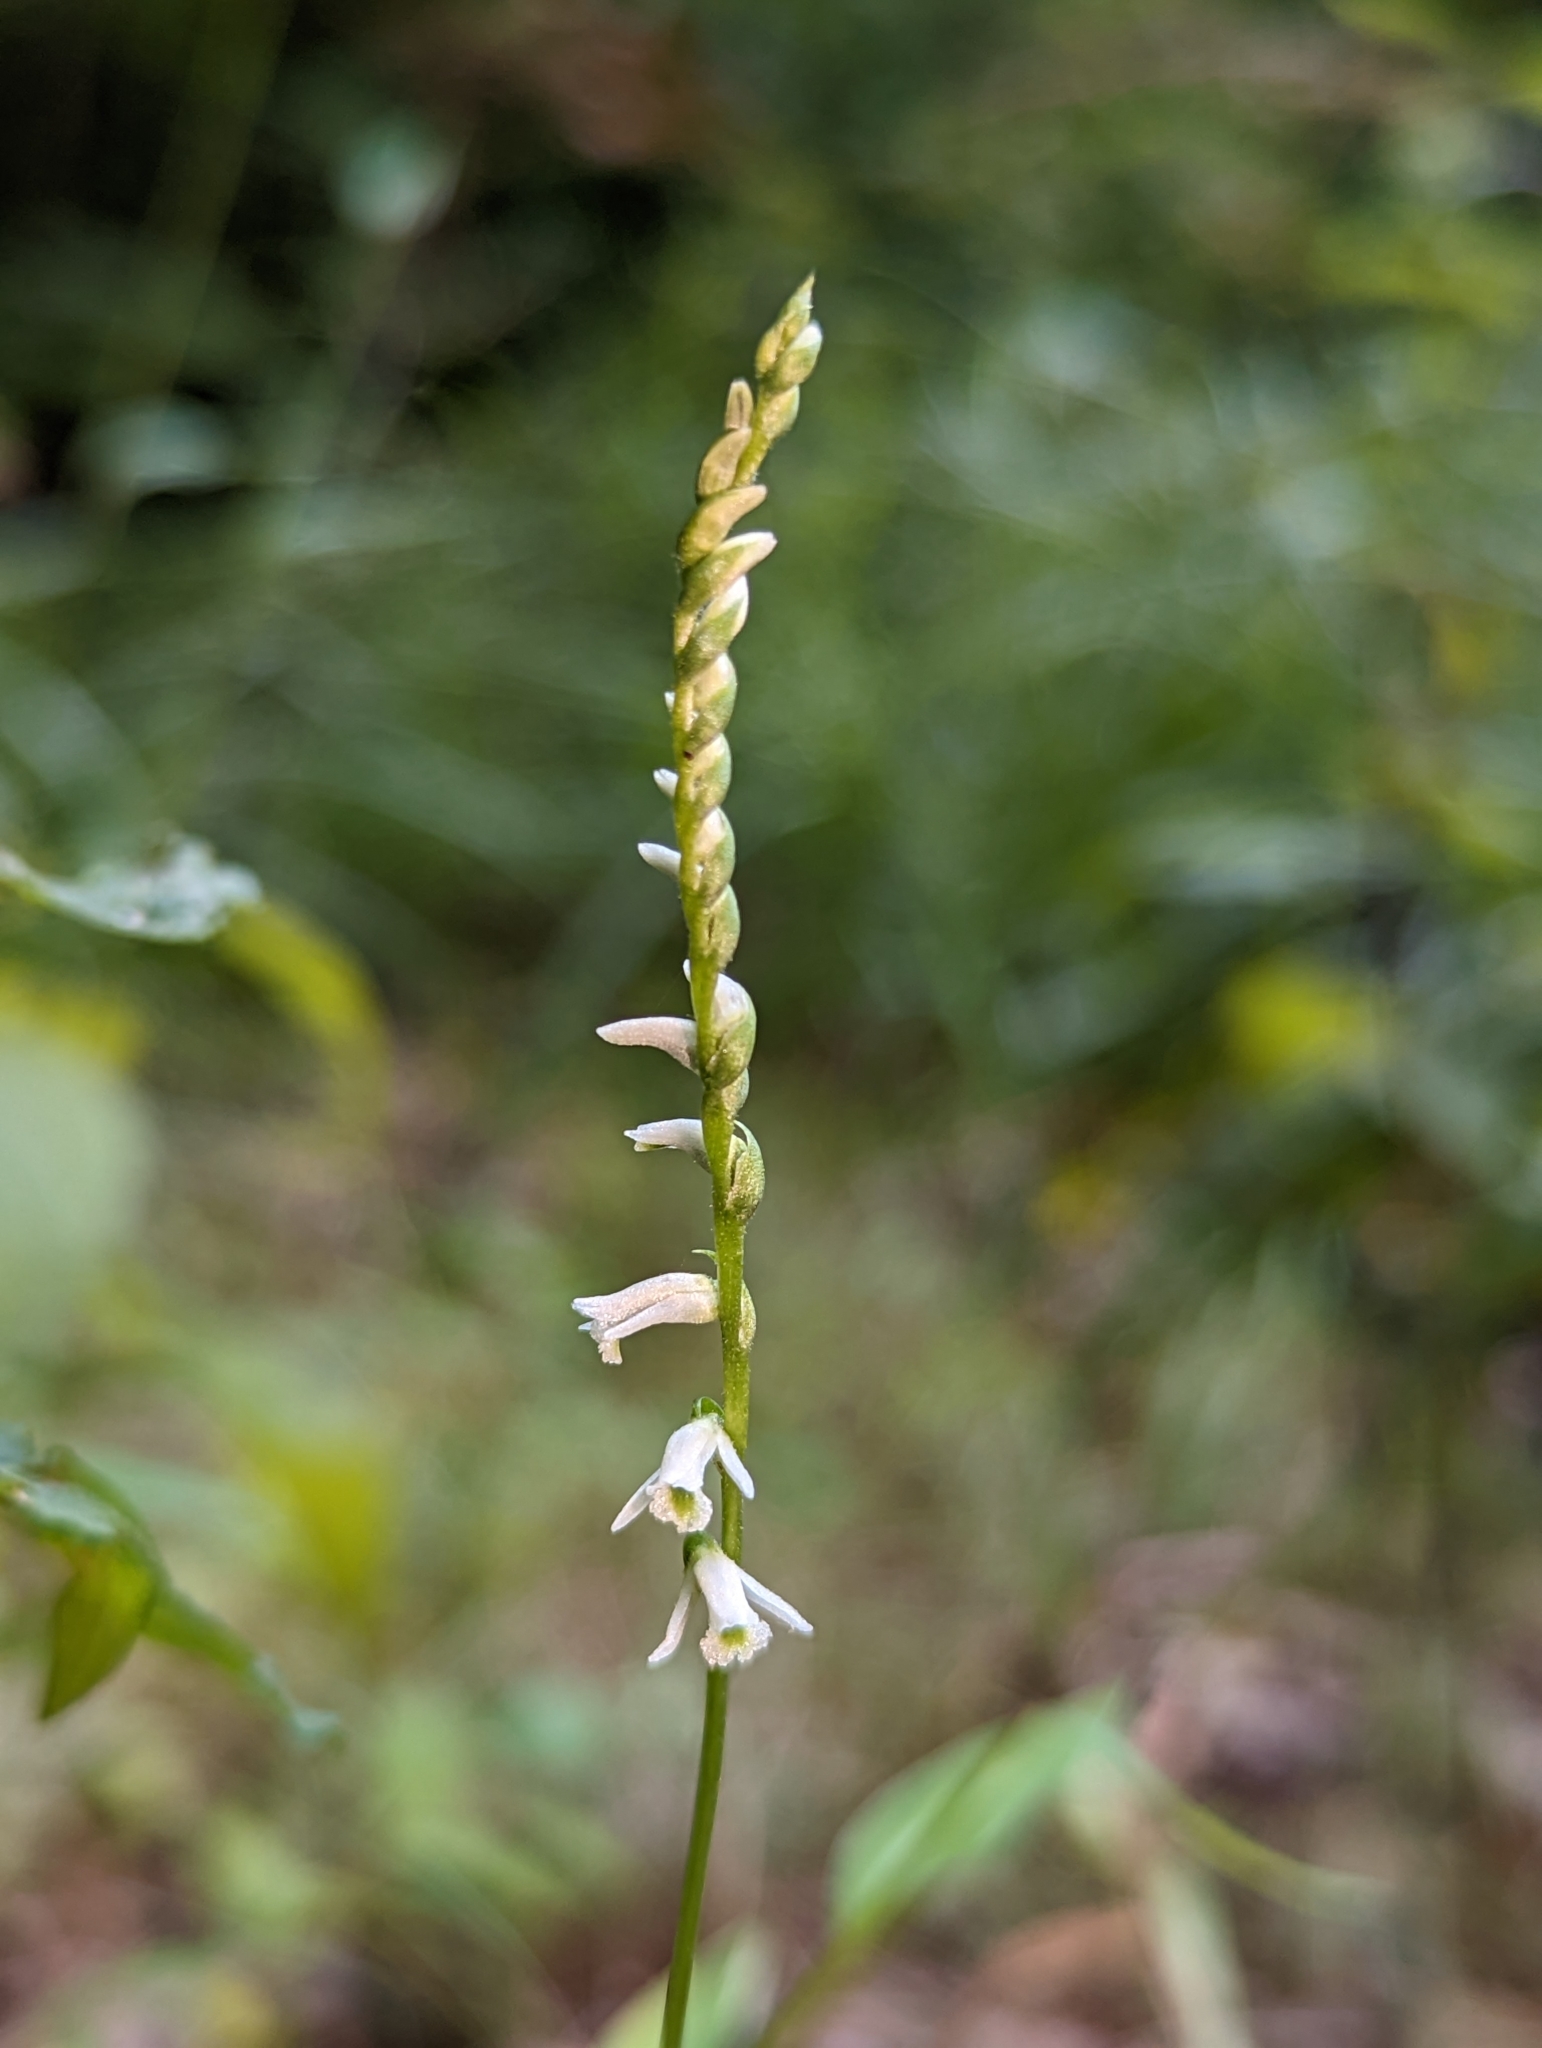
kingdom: Plantae
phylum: Tracheophyta
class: Liliopsida
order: Asparagales
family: Orchidaceae
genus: Spiranthes
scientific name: Spiranthes lacera
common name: Northern slender ladies'-tresses
